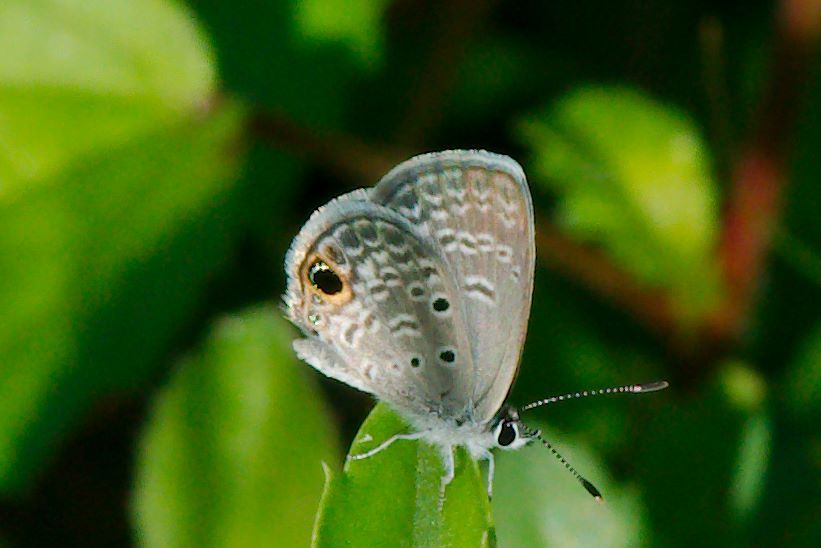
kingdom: Animalia
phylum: Arthropoda
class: Insecta
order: Lepidoptera
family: Lycaenidae
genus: Hemiargus
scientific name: Hemiargus ceraunus
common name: Ceraunus blue
